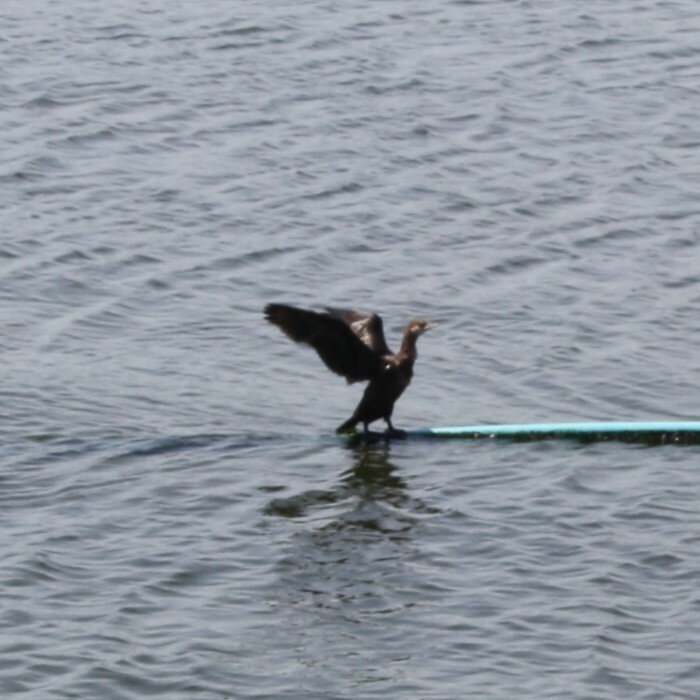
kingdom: Animalia
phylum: Chordata
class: Aves
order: Suliformes
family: Phalacrocoracidae
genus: Microcarbo
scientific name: Microcarbo pygmaeus
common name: Pygmy cormorant
